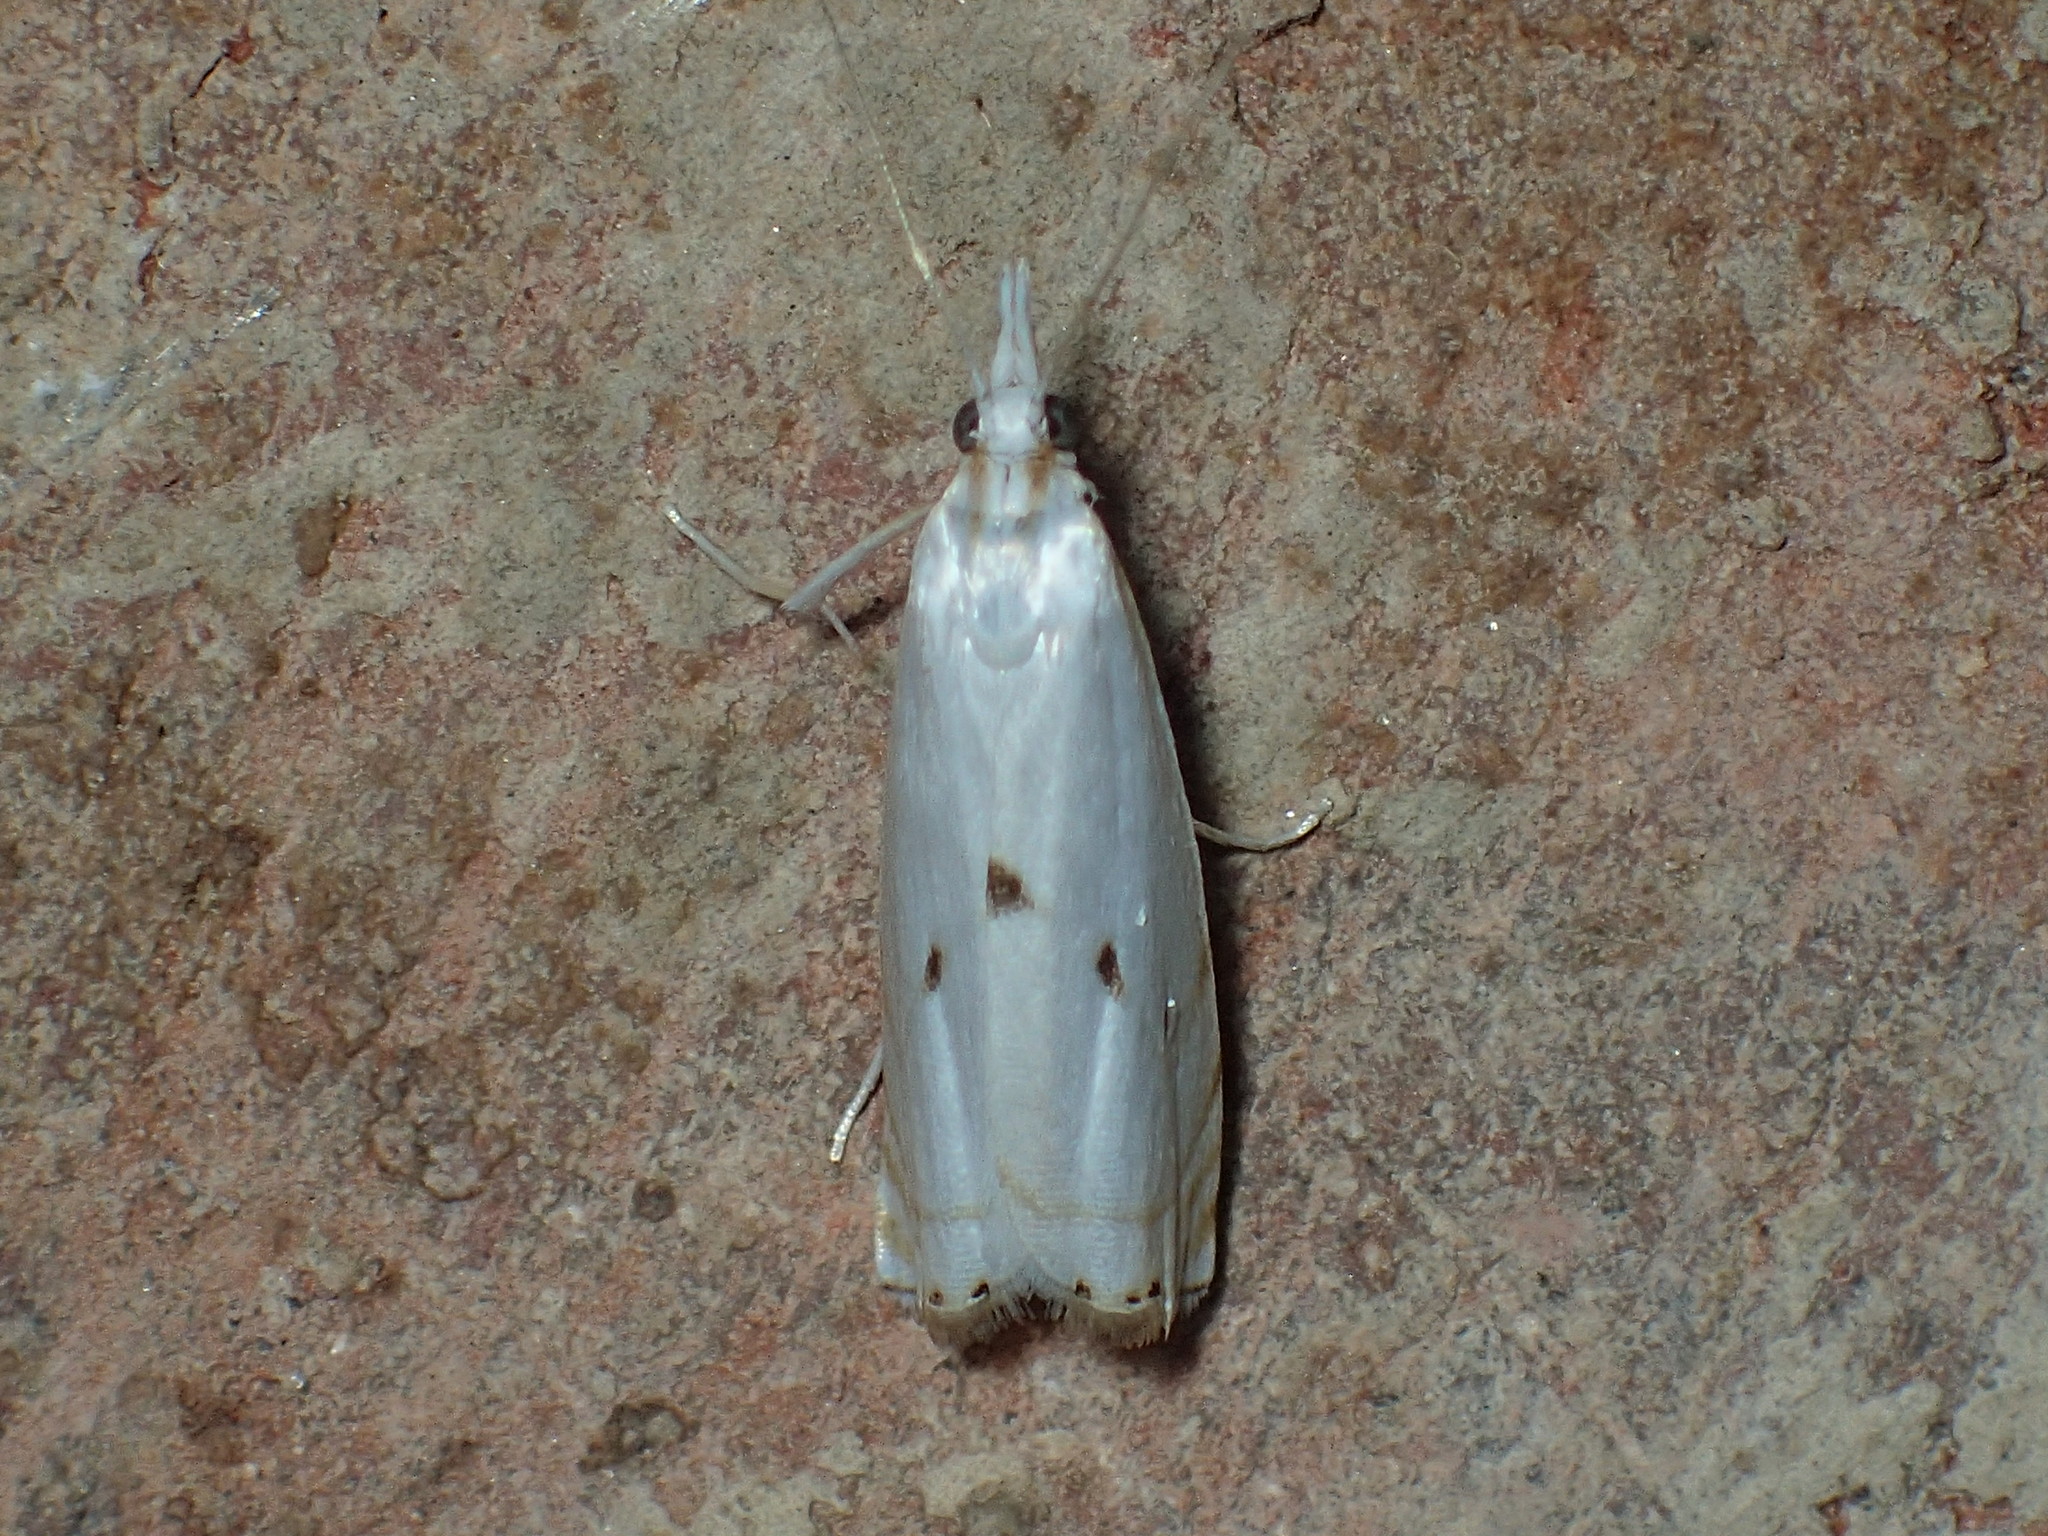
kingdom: Animalia
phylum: Arthropoda
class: Insecta
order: Lepidoptera
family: Crambidae
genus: Microcrambus
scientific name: Microcrambus biguttellus
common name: Gold-stripe grass-veneer moth
